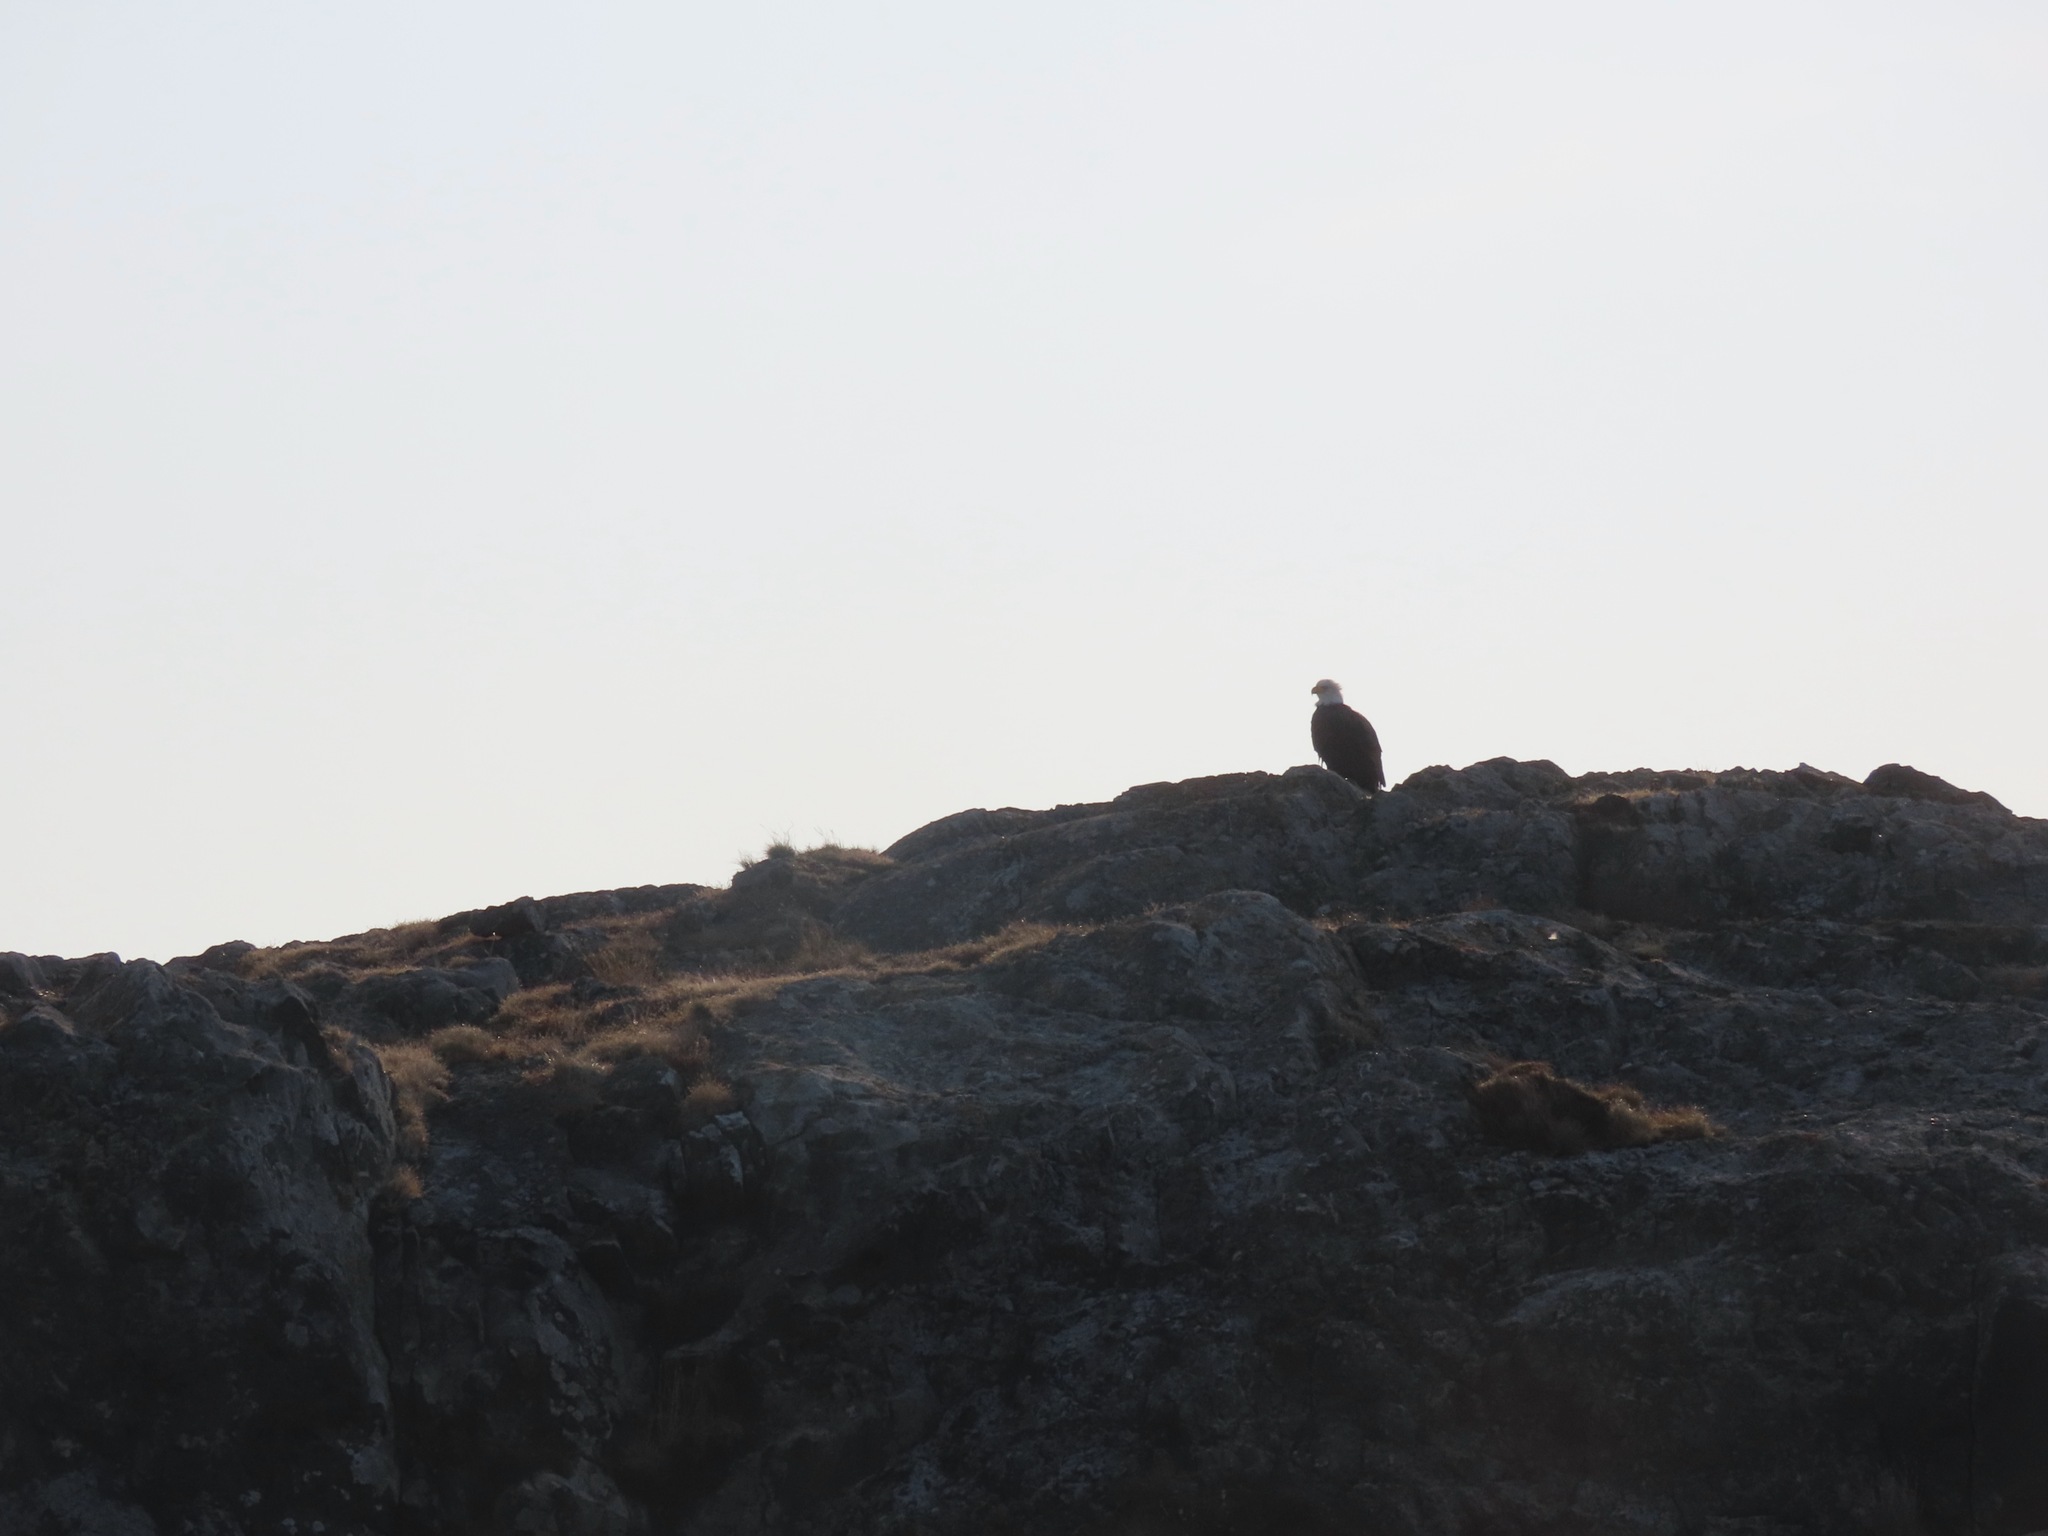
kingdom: Animalia
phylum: Chordata
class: Aves
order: Accipitriformes
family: Accipitridae
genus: Haliaeetus
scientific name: Haliaeetus leucocephalus
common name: Bald eagle
